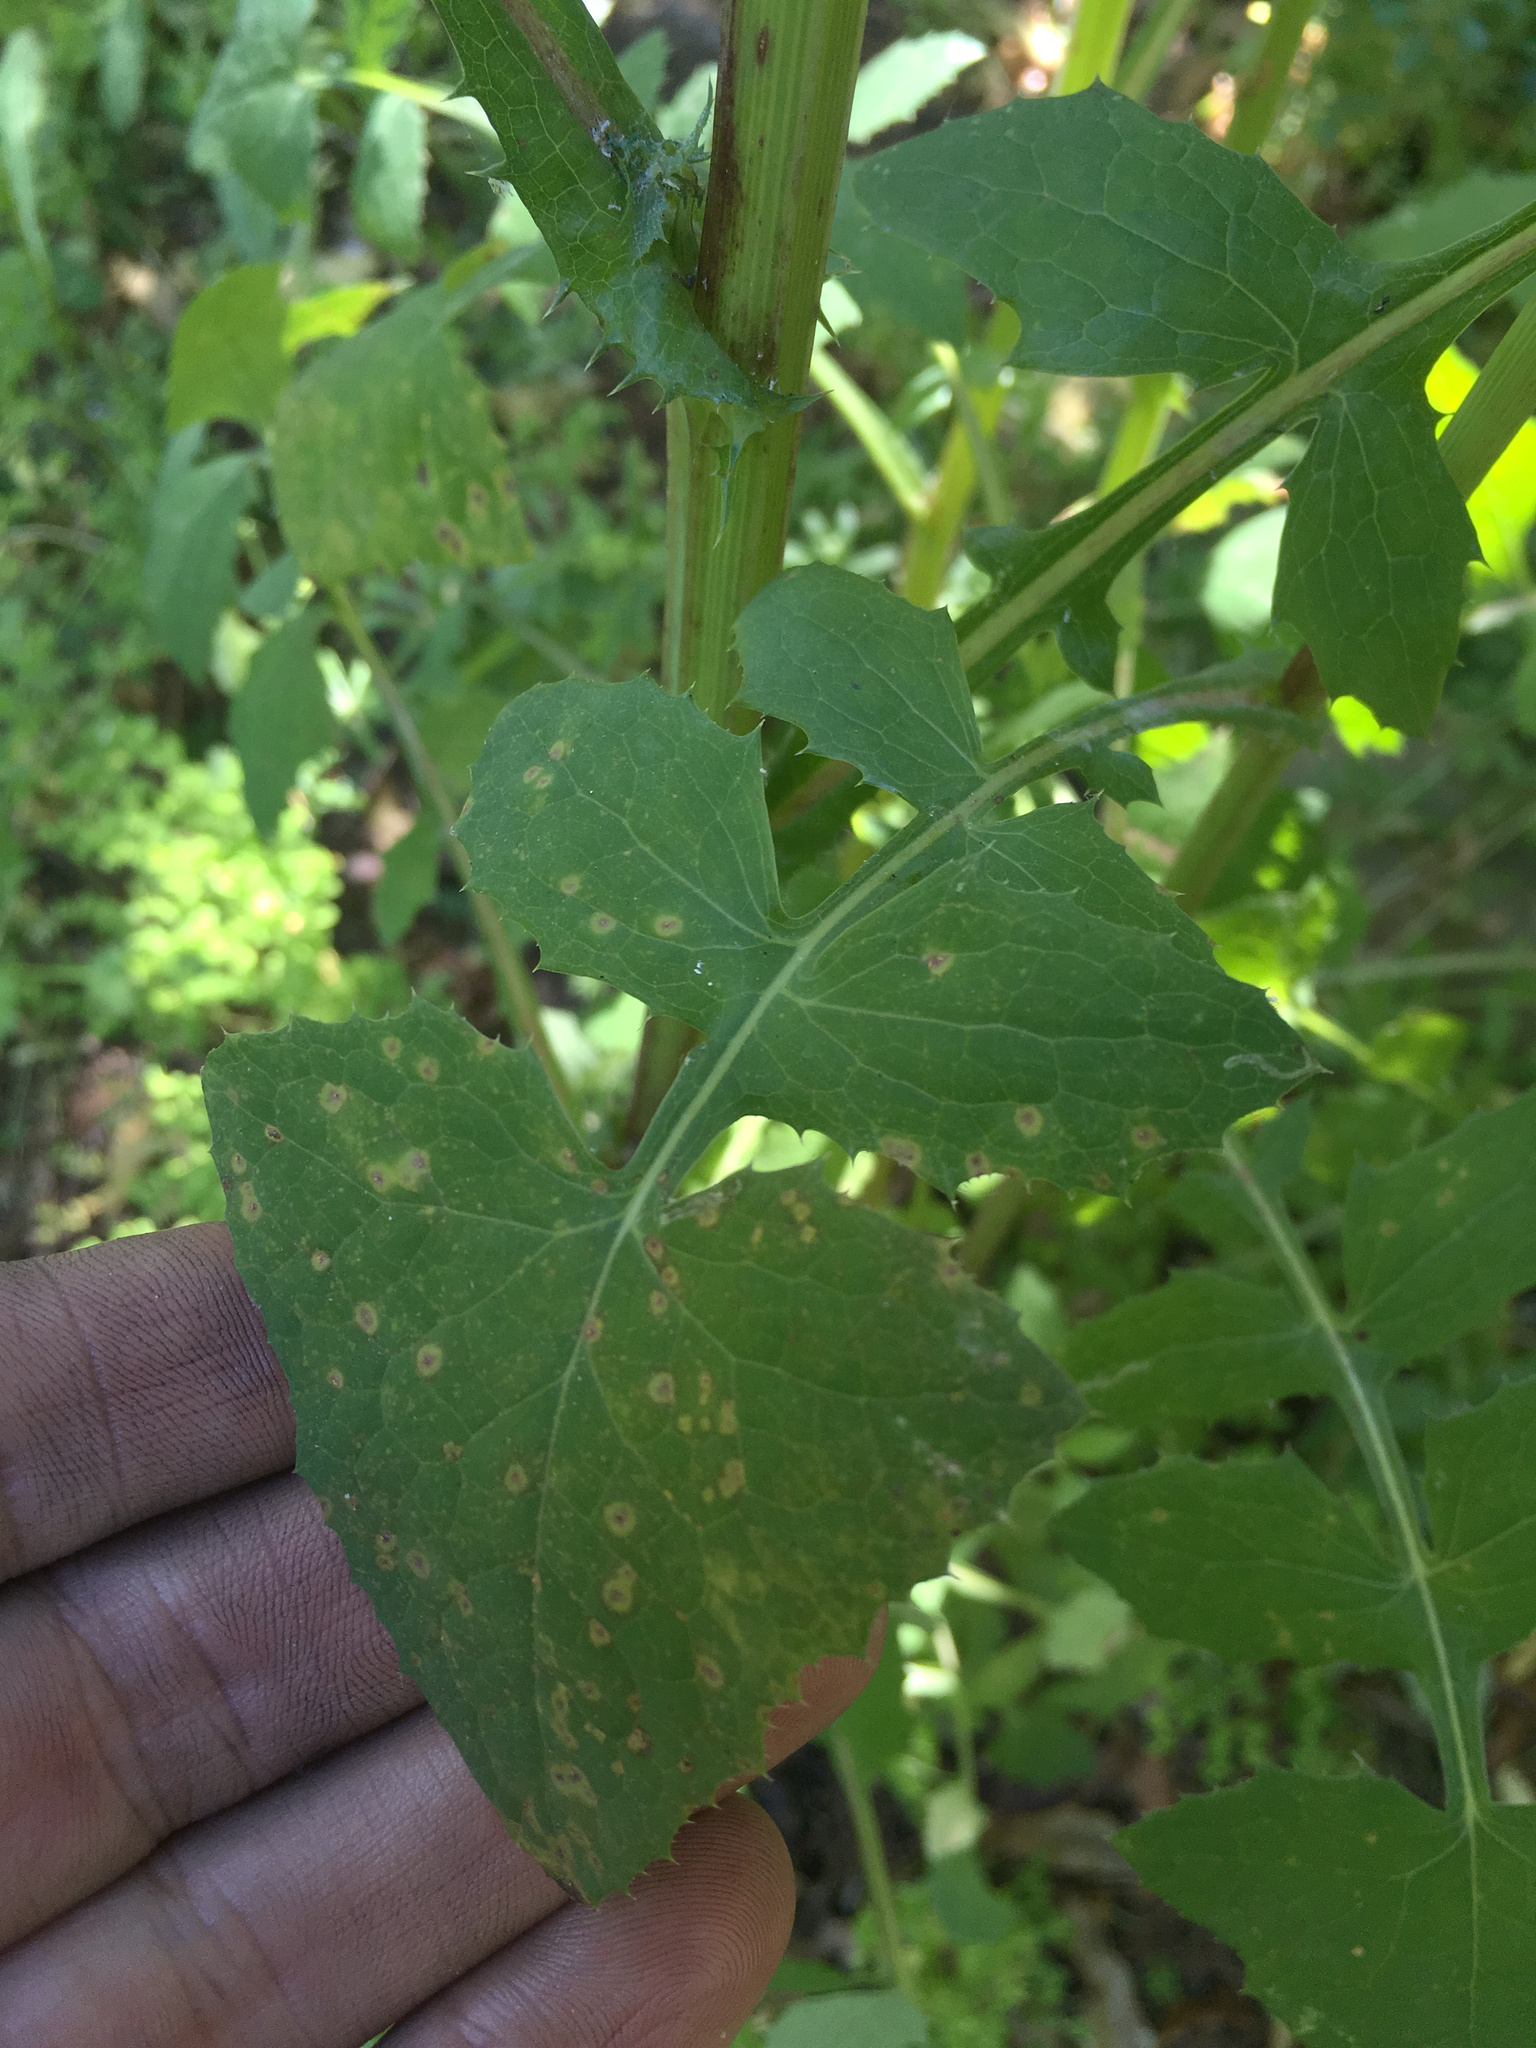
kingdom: Fungi
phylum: Basidiomycota
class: Pucciniomycetes
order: Pucciniales
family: Pucciniaceae
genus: Peristemma
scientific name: Peristemma pseudosphaeria
